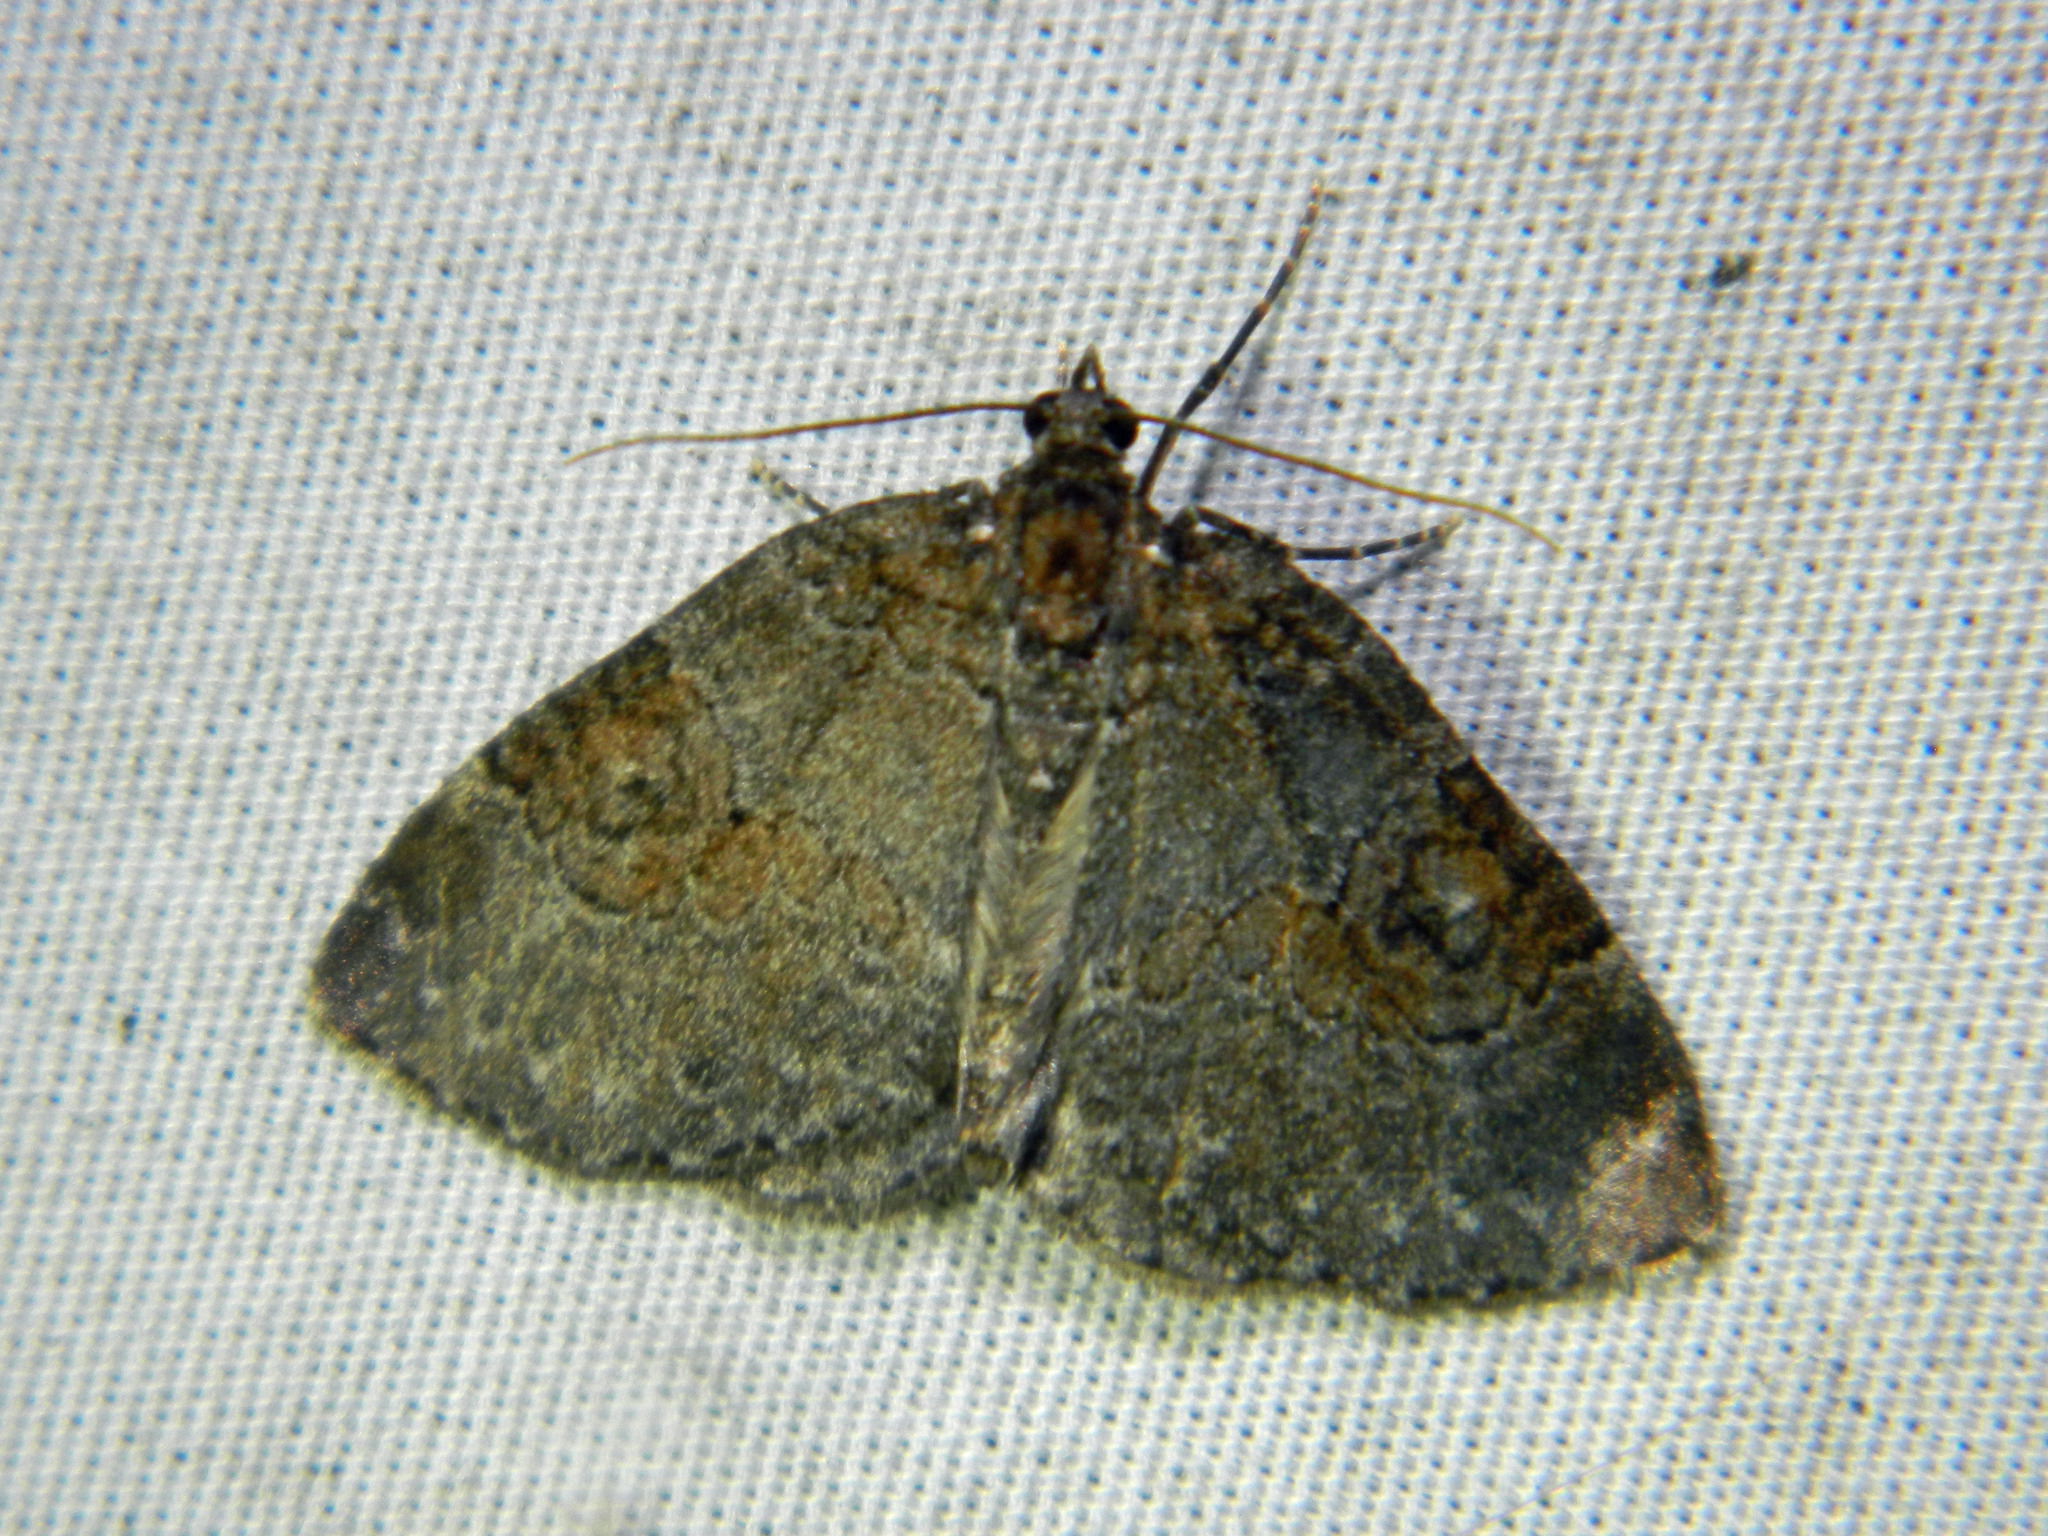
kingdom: Animalia
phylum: Arthropoda
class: Insecta
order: Lepidoptera
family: Geometridae
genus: Plemyria
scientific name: Plemyria georgii
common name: George's carpet moth
